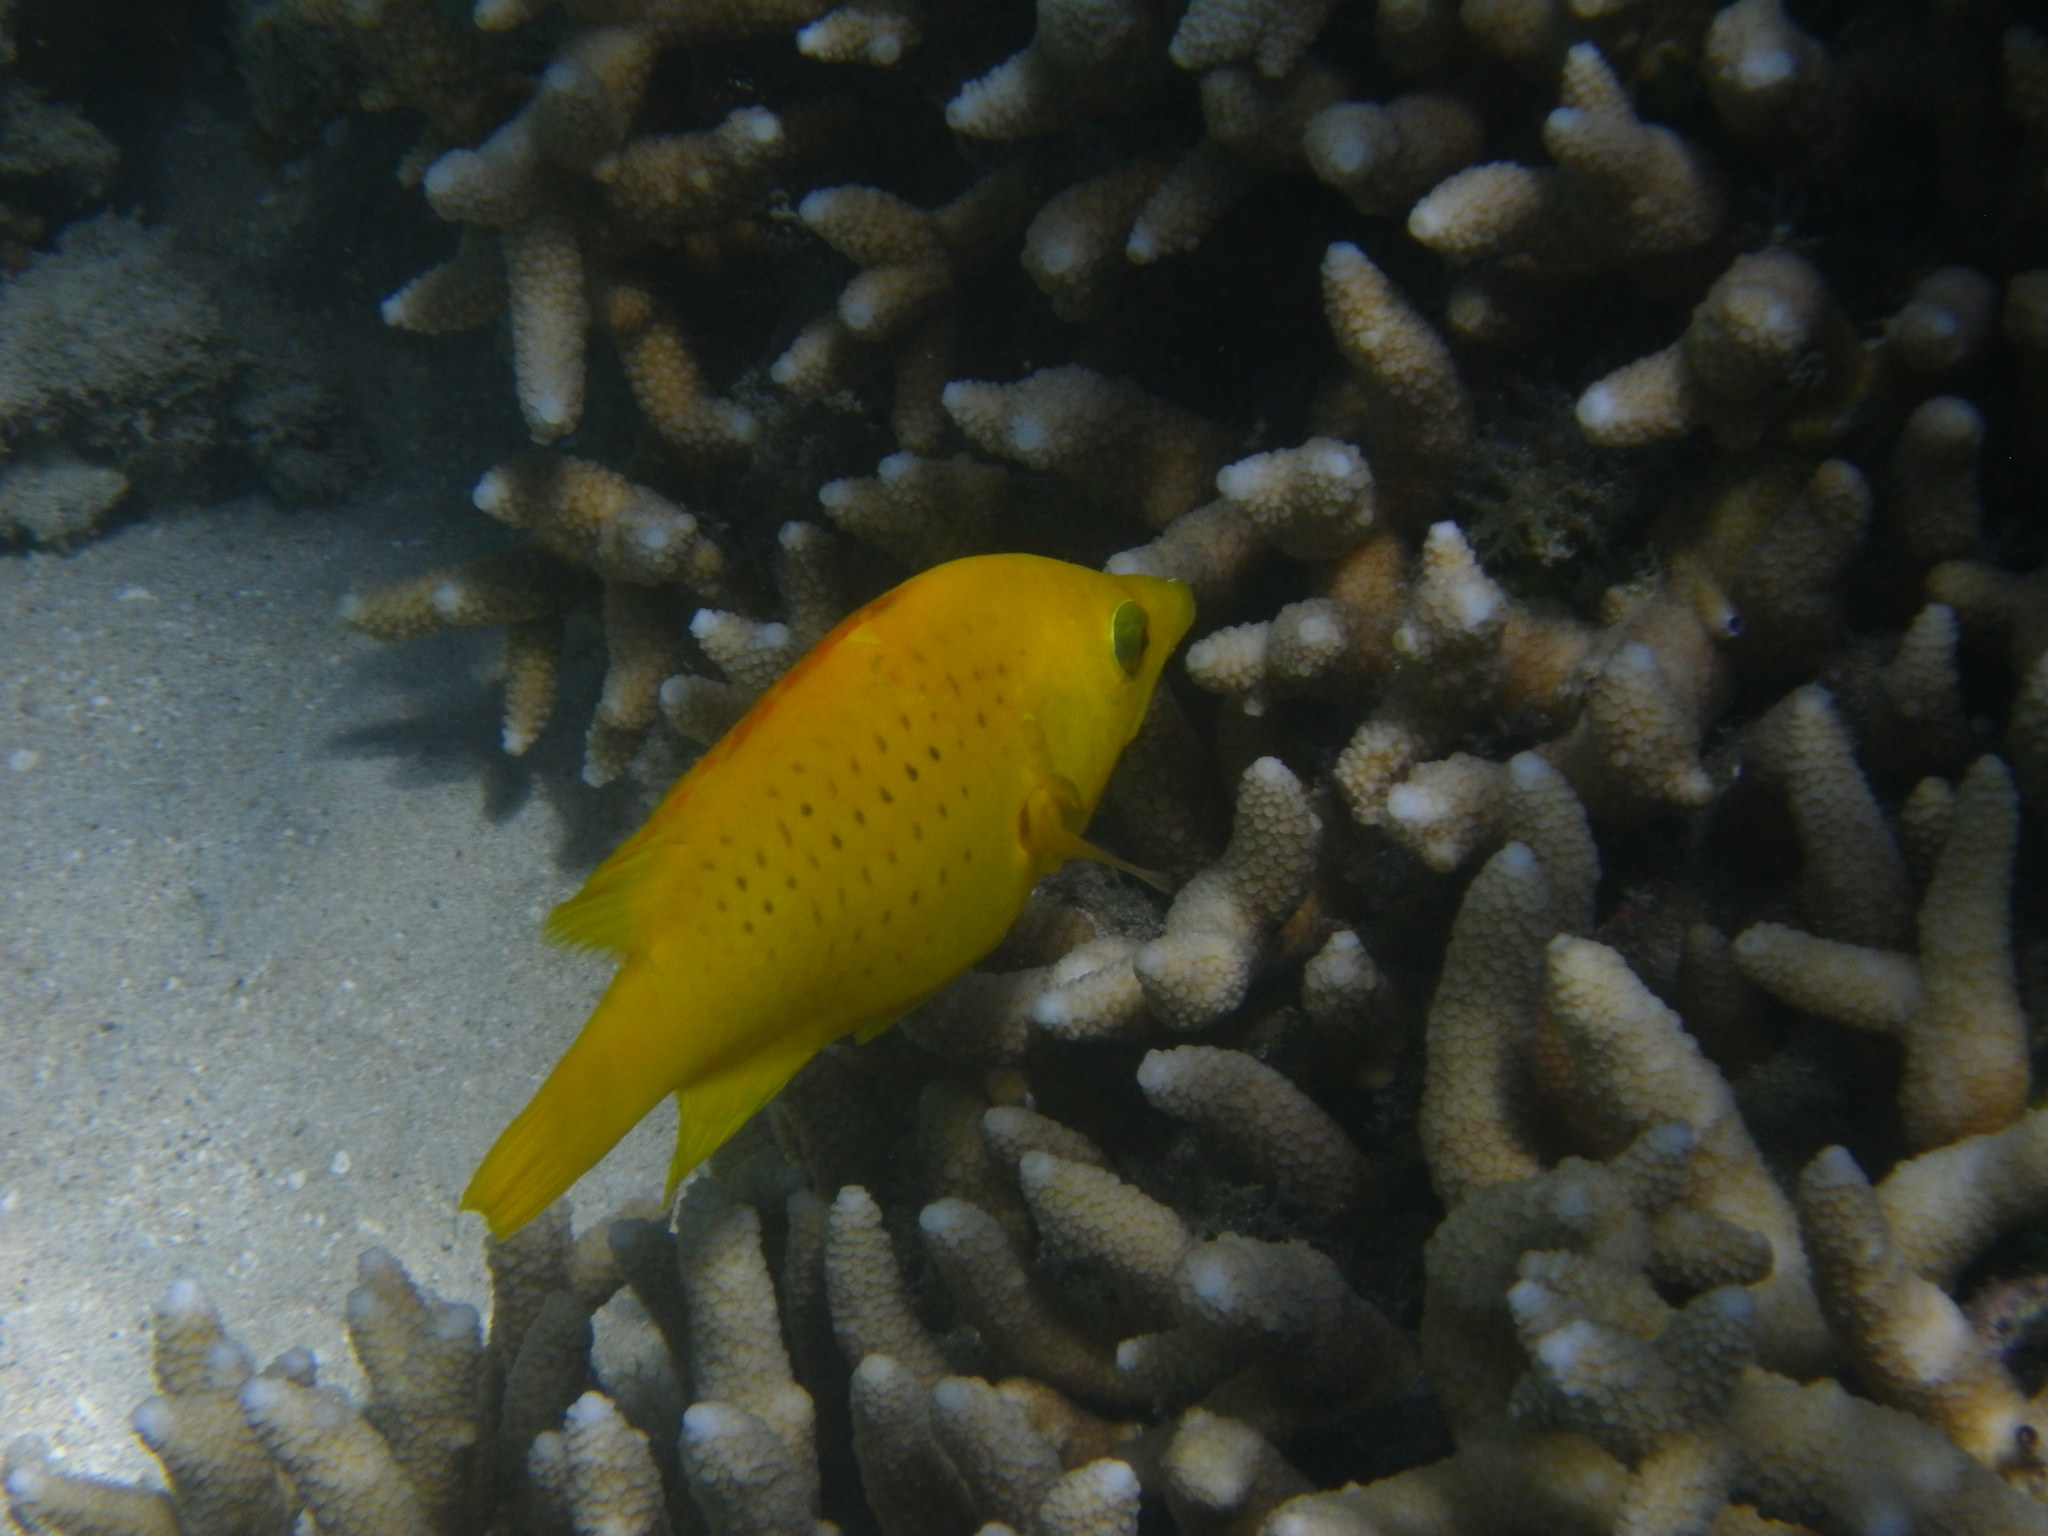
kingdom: Animalia
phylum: Chordata
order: Perciformes
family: Labridae
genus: Epibulus
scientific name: Epibulus insidiator
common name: Slingjaw wrasse
